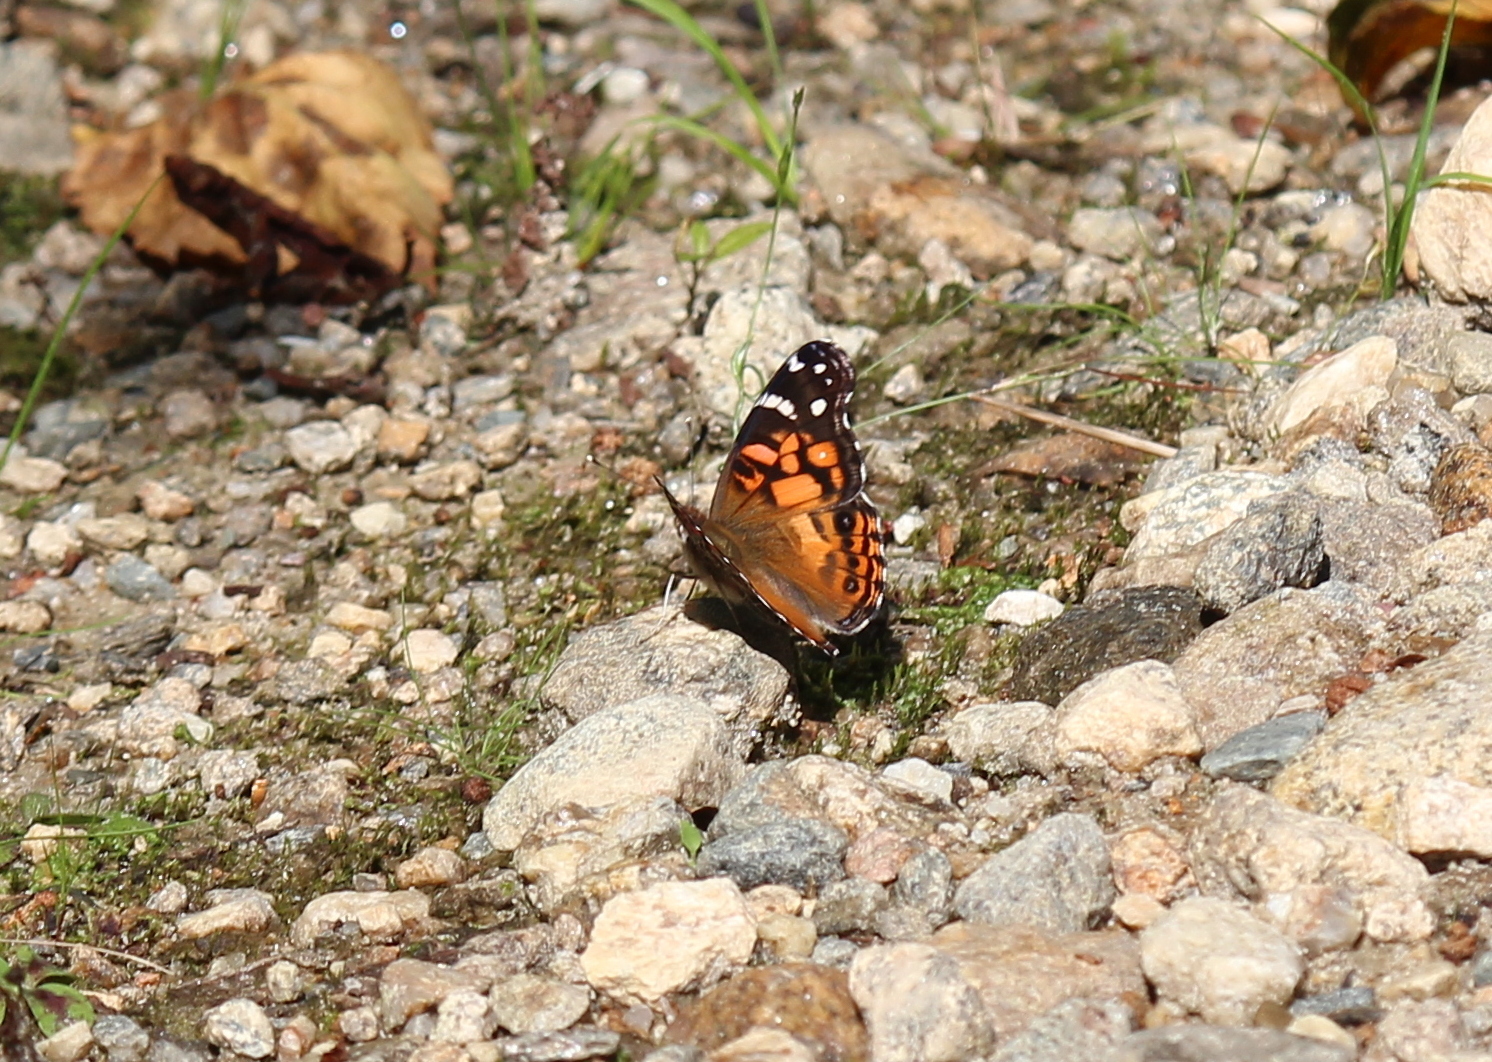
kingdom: Animalia
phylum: Arthropoda
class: Insecta
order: Lepidoptera
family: Nymphalidae
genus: Vanessa
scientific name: Vanessa virginiensis
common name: American lady
